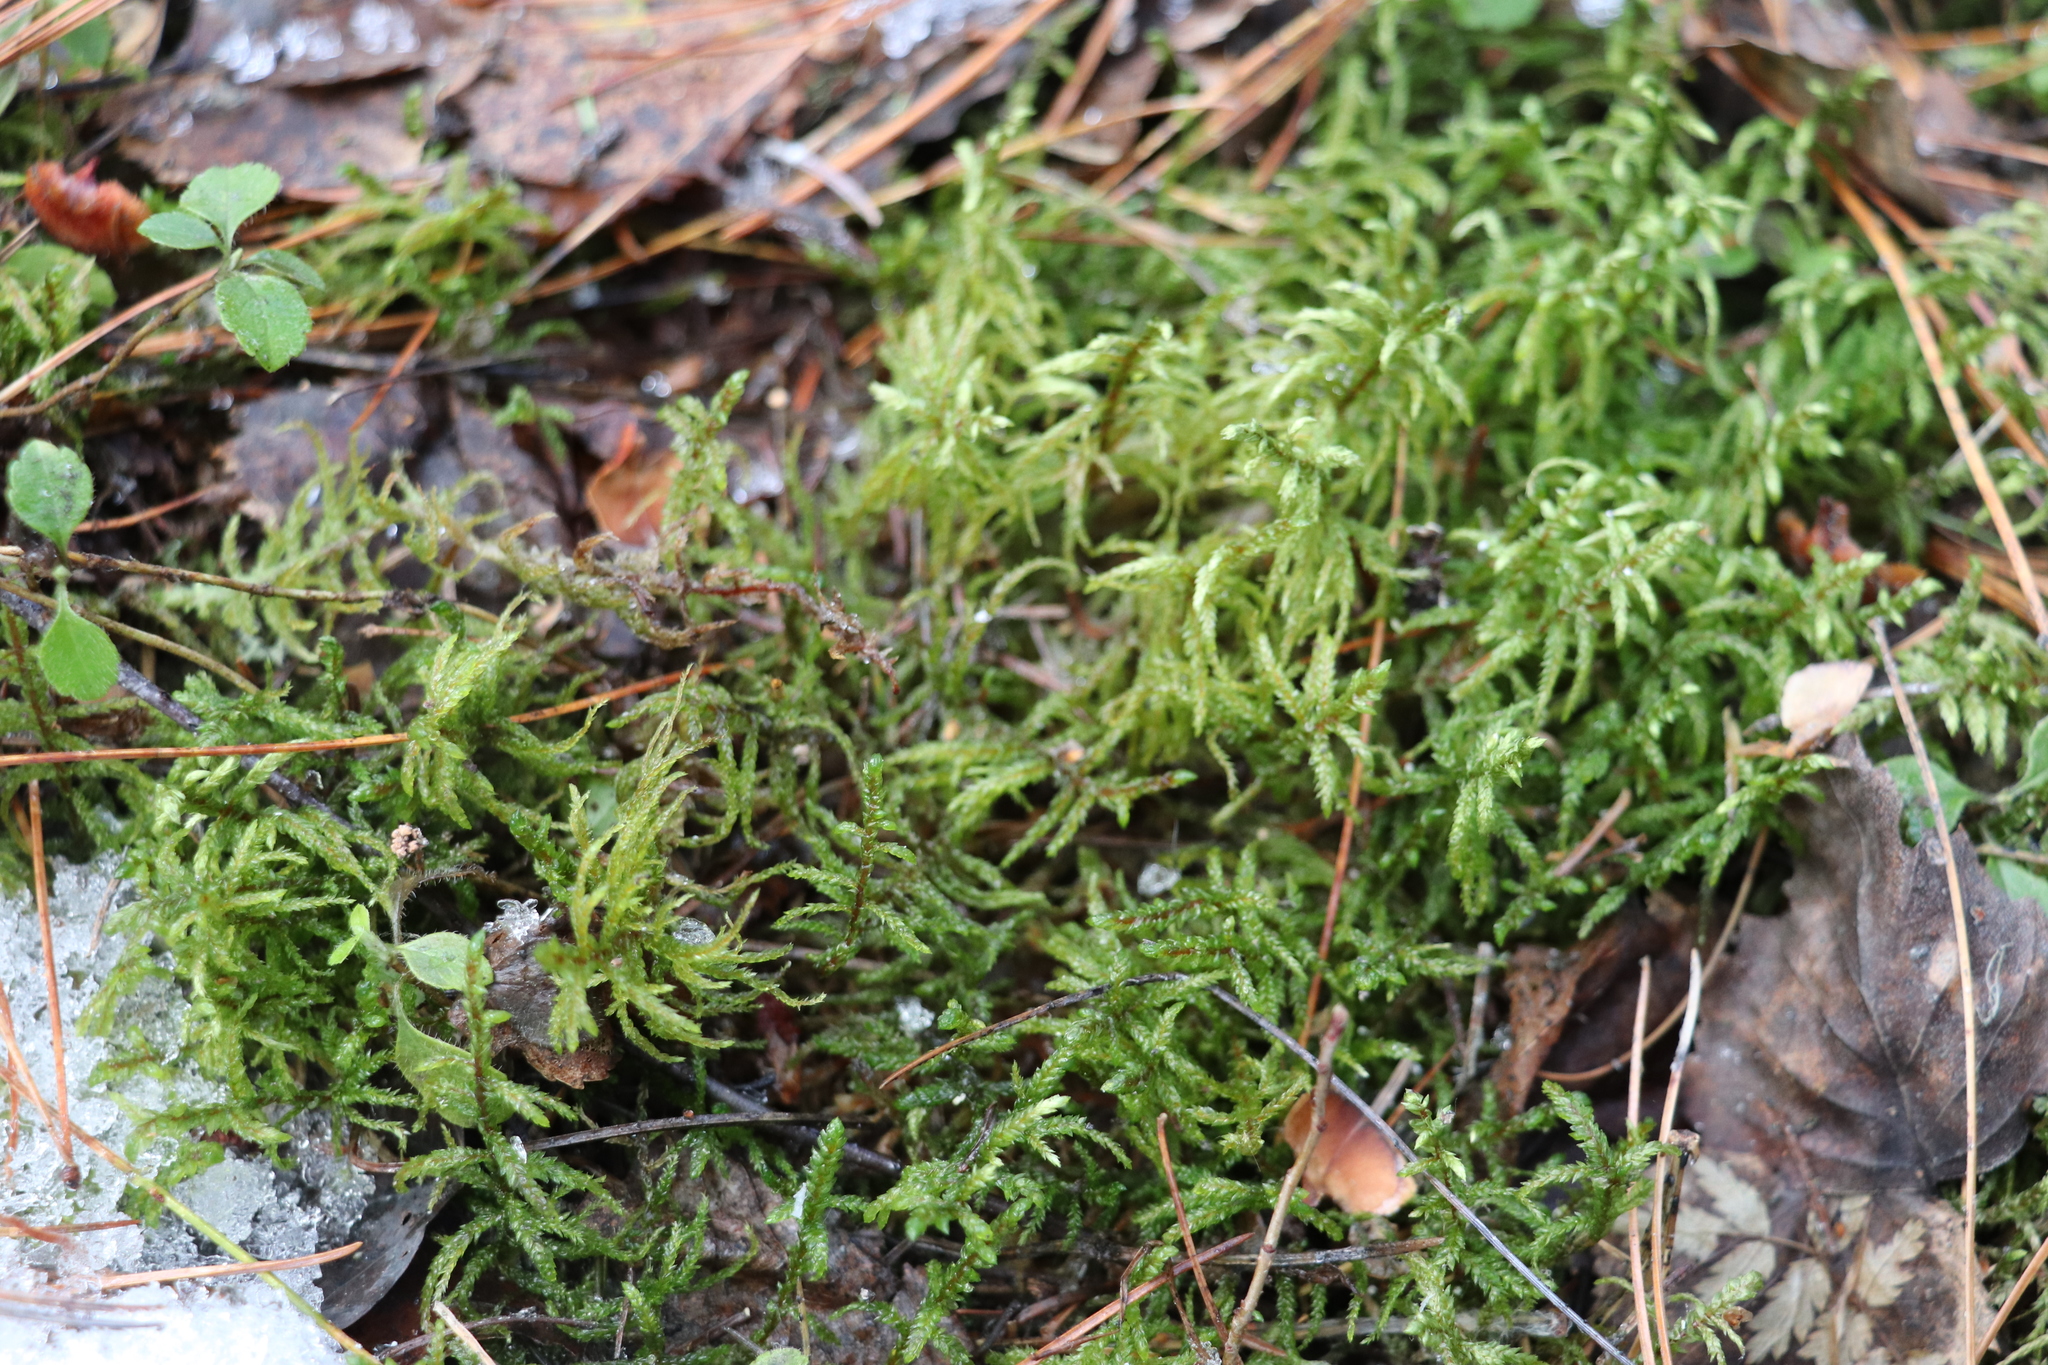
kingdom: Plantae
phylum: Bryophyta
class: Bryopsida
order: Hypnales
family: Hylocomiaceae
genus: Pleurozium
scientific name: Pleurozium schreberi
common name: Red-stemmed feather moss
